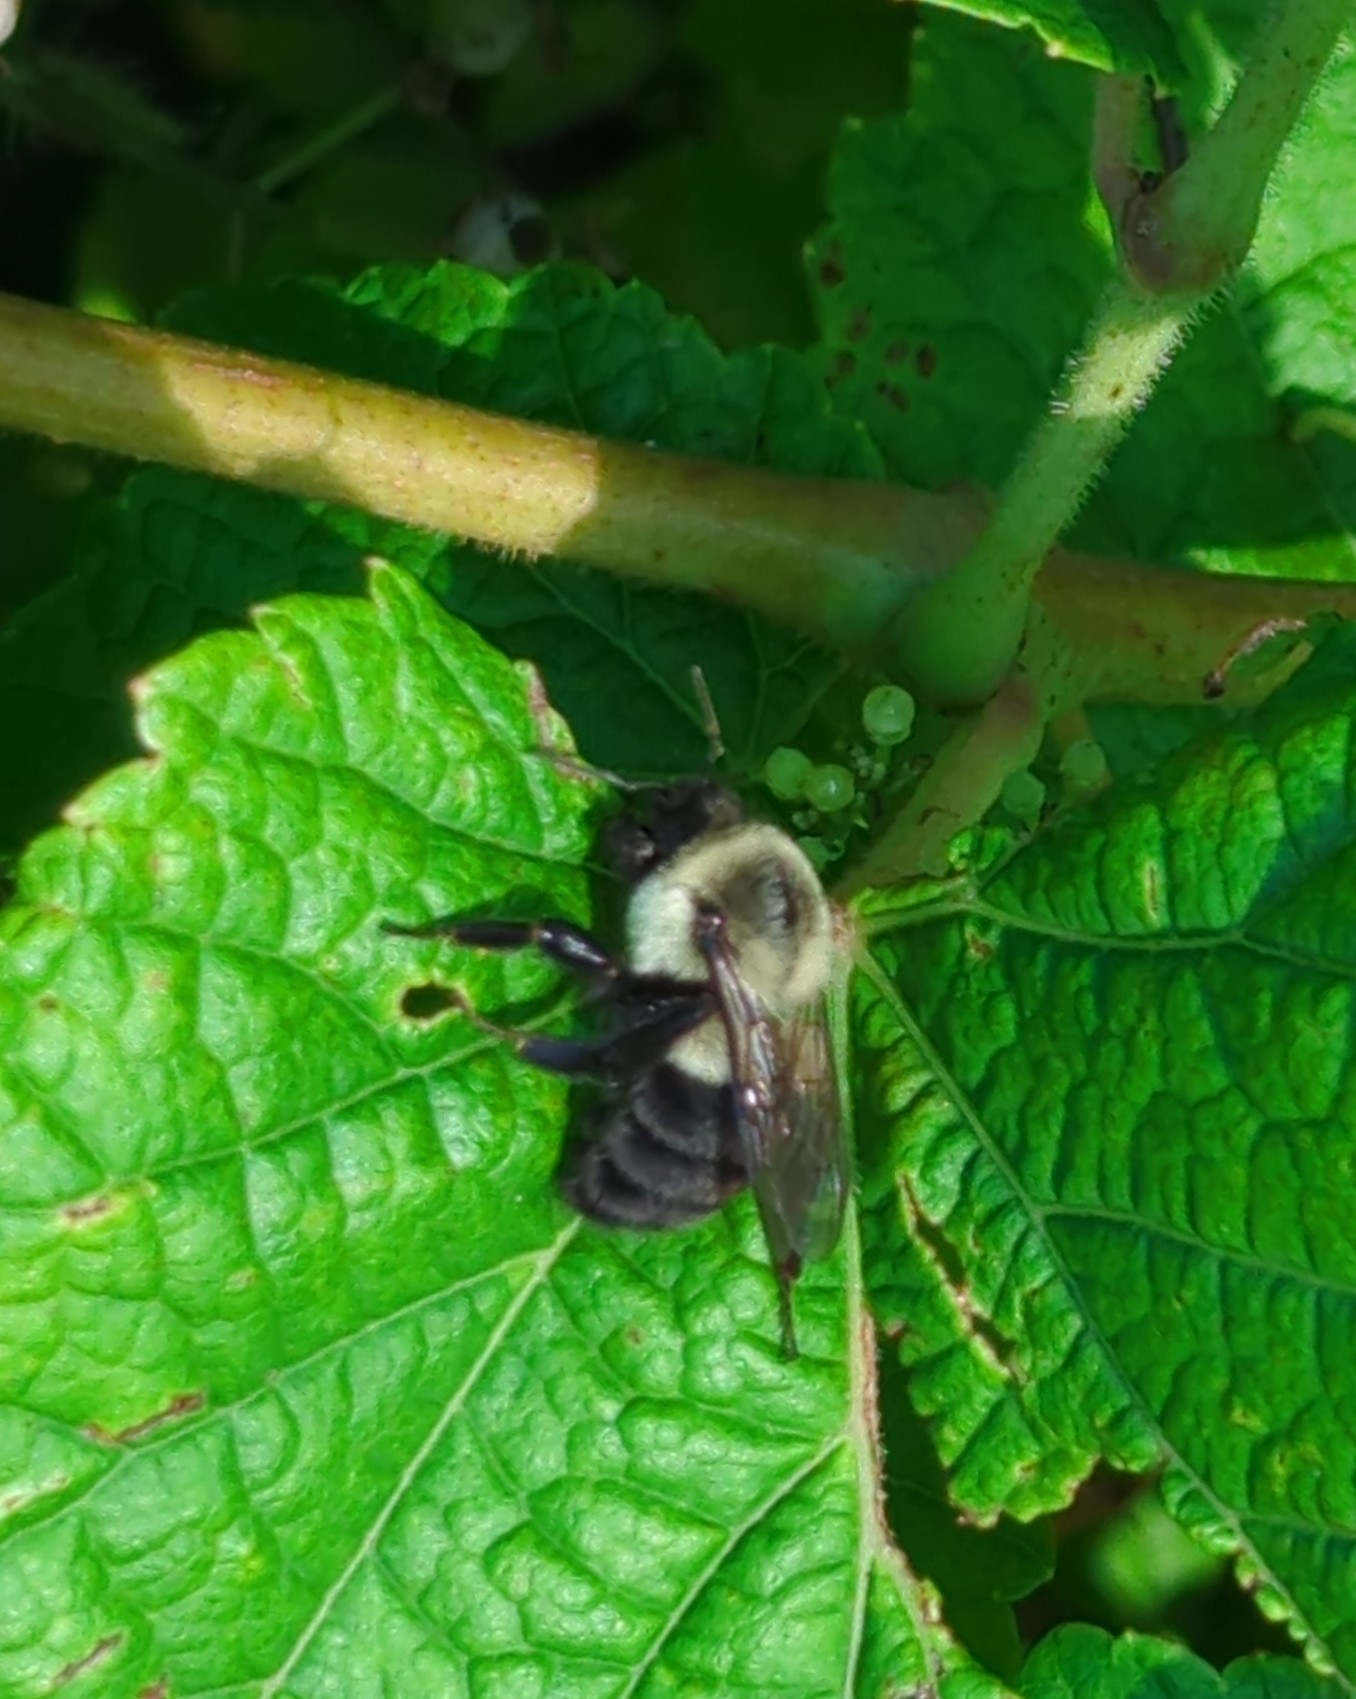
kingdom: Animalia
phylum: Arthropoda
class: Insecta
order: Hymenoptera
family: Apidae
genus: Bombus
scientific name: Bombus impatiens
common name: Common eastern bumble bee
